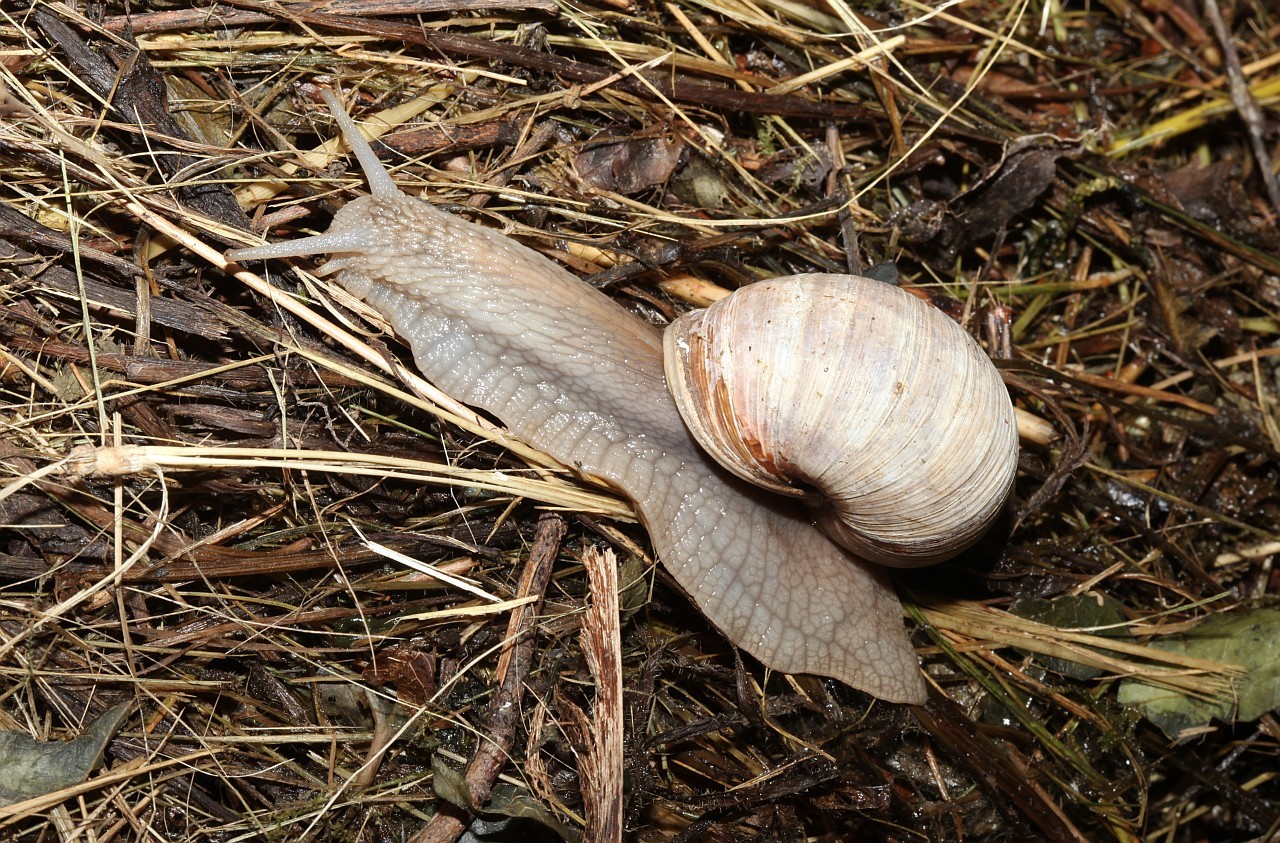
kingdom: Animalia
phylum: Mollusca
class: Gastropoda
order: Stylommatophora
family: Helicidae
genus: Helix
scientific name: Helix pomatia
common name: Roman snail
